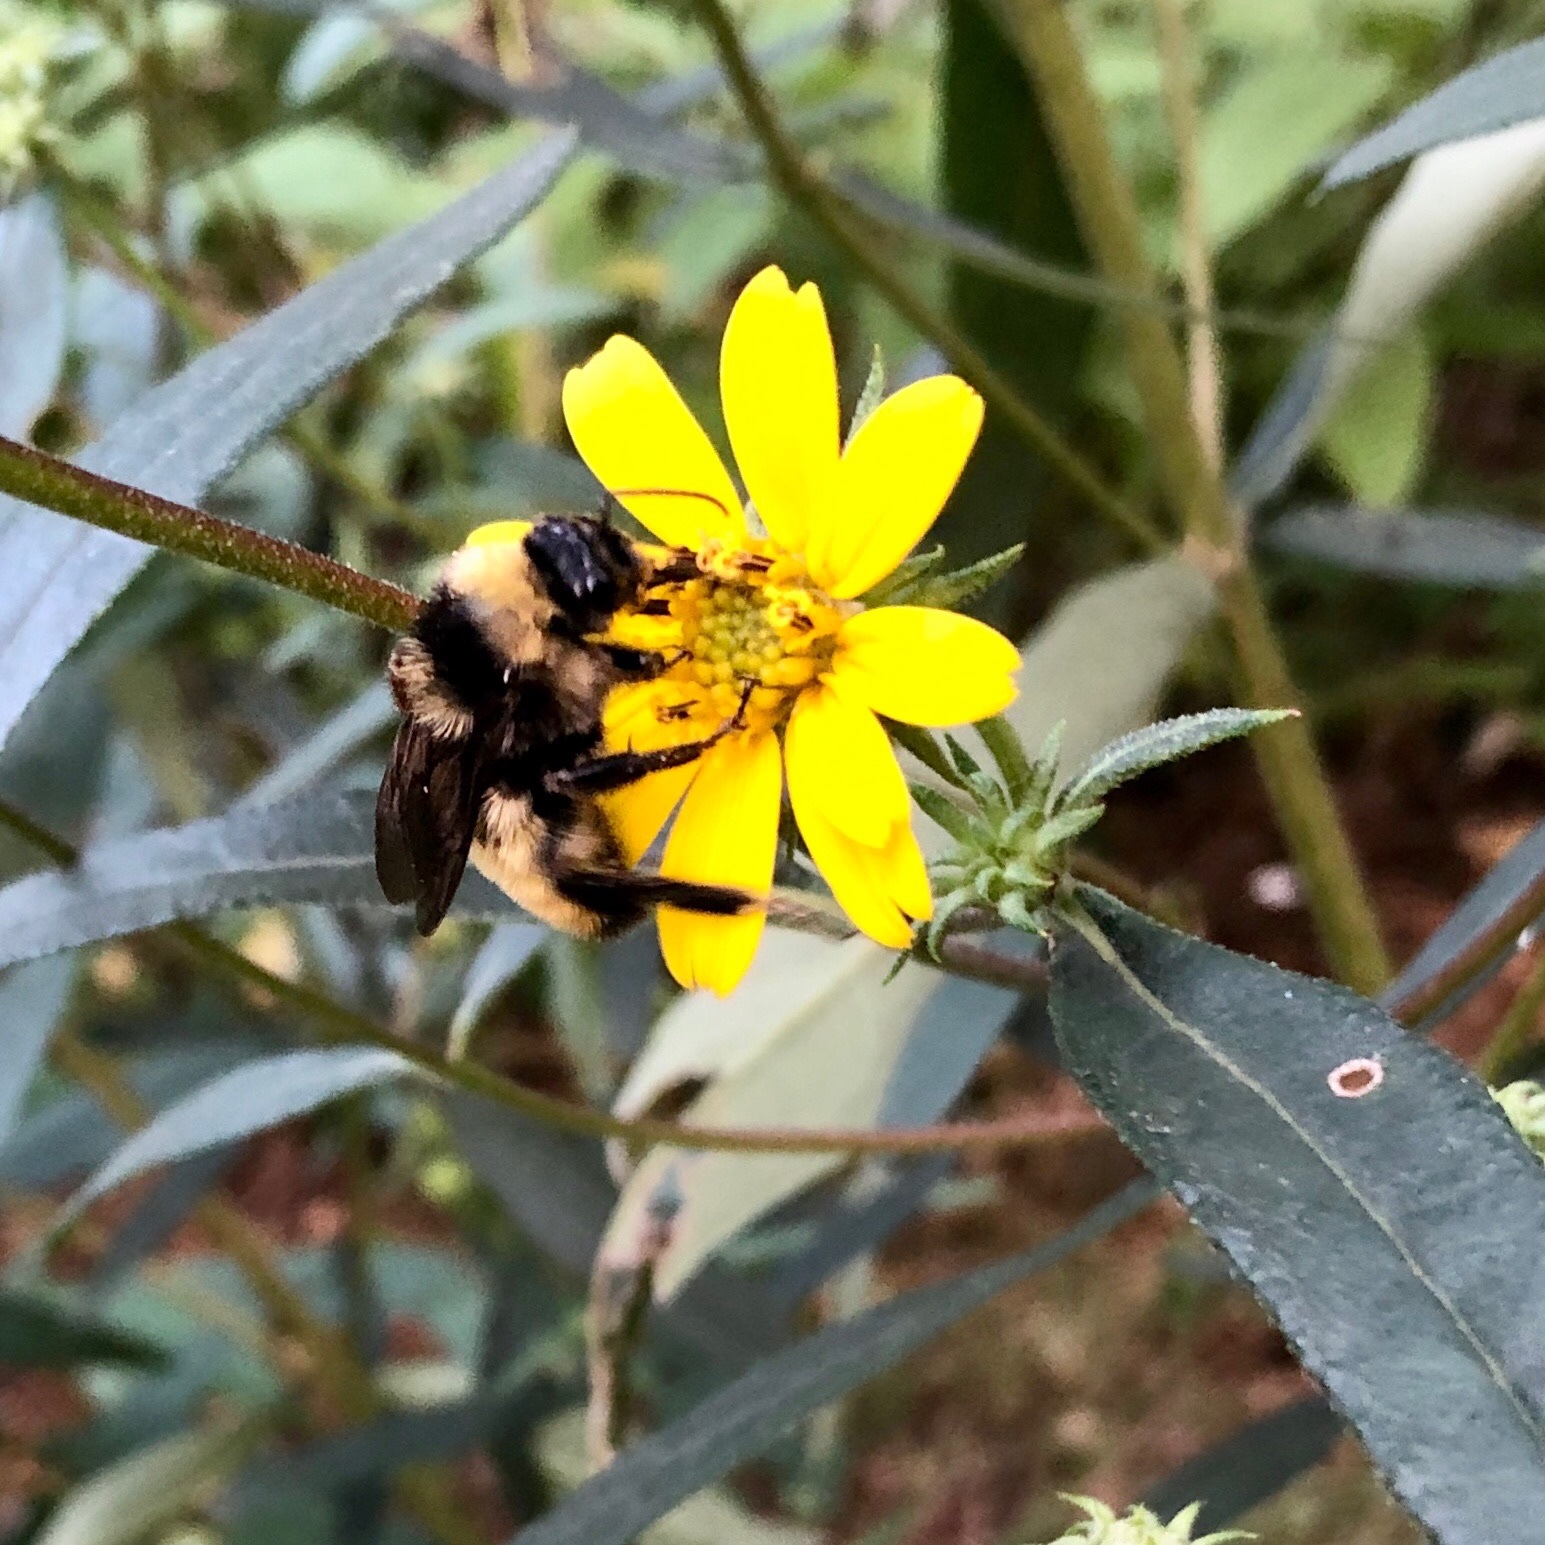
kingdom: Animalia
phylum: Arthropoda
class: Insecta
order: Hymenoptera
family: Apidae
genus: Bombus
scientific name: Bombus pensylvanicus
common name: Bumble bee
